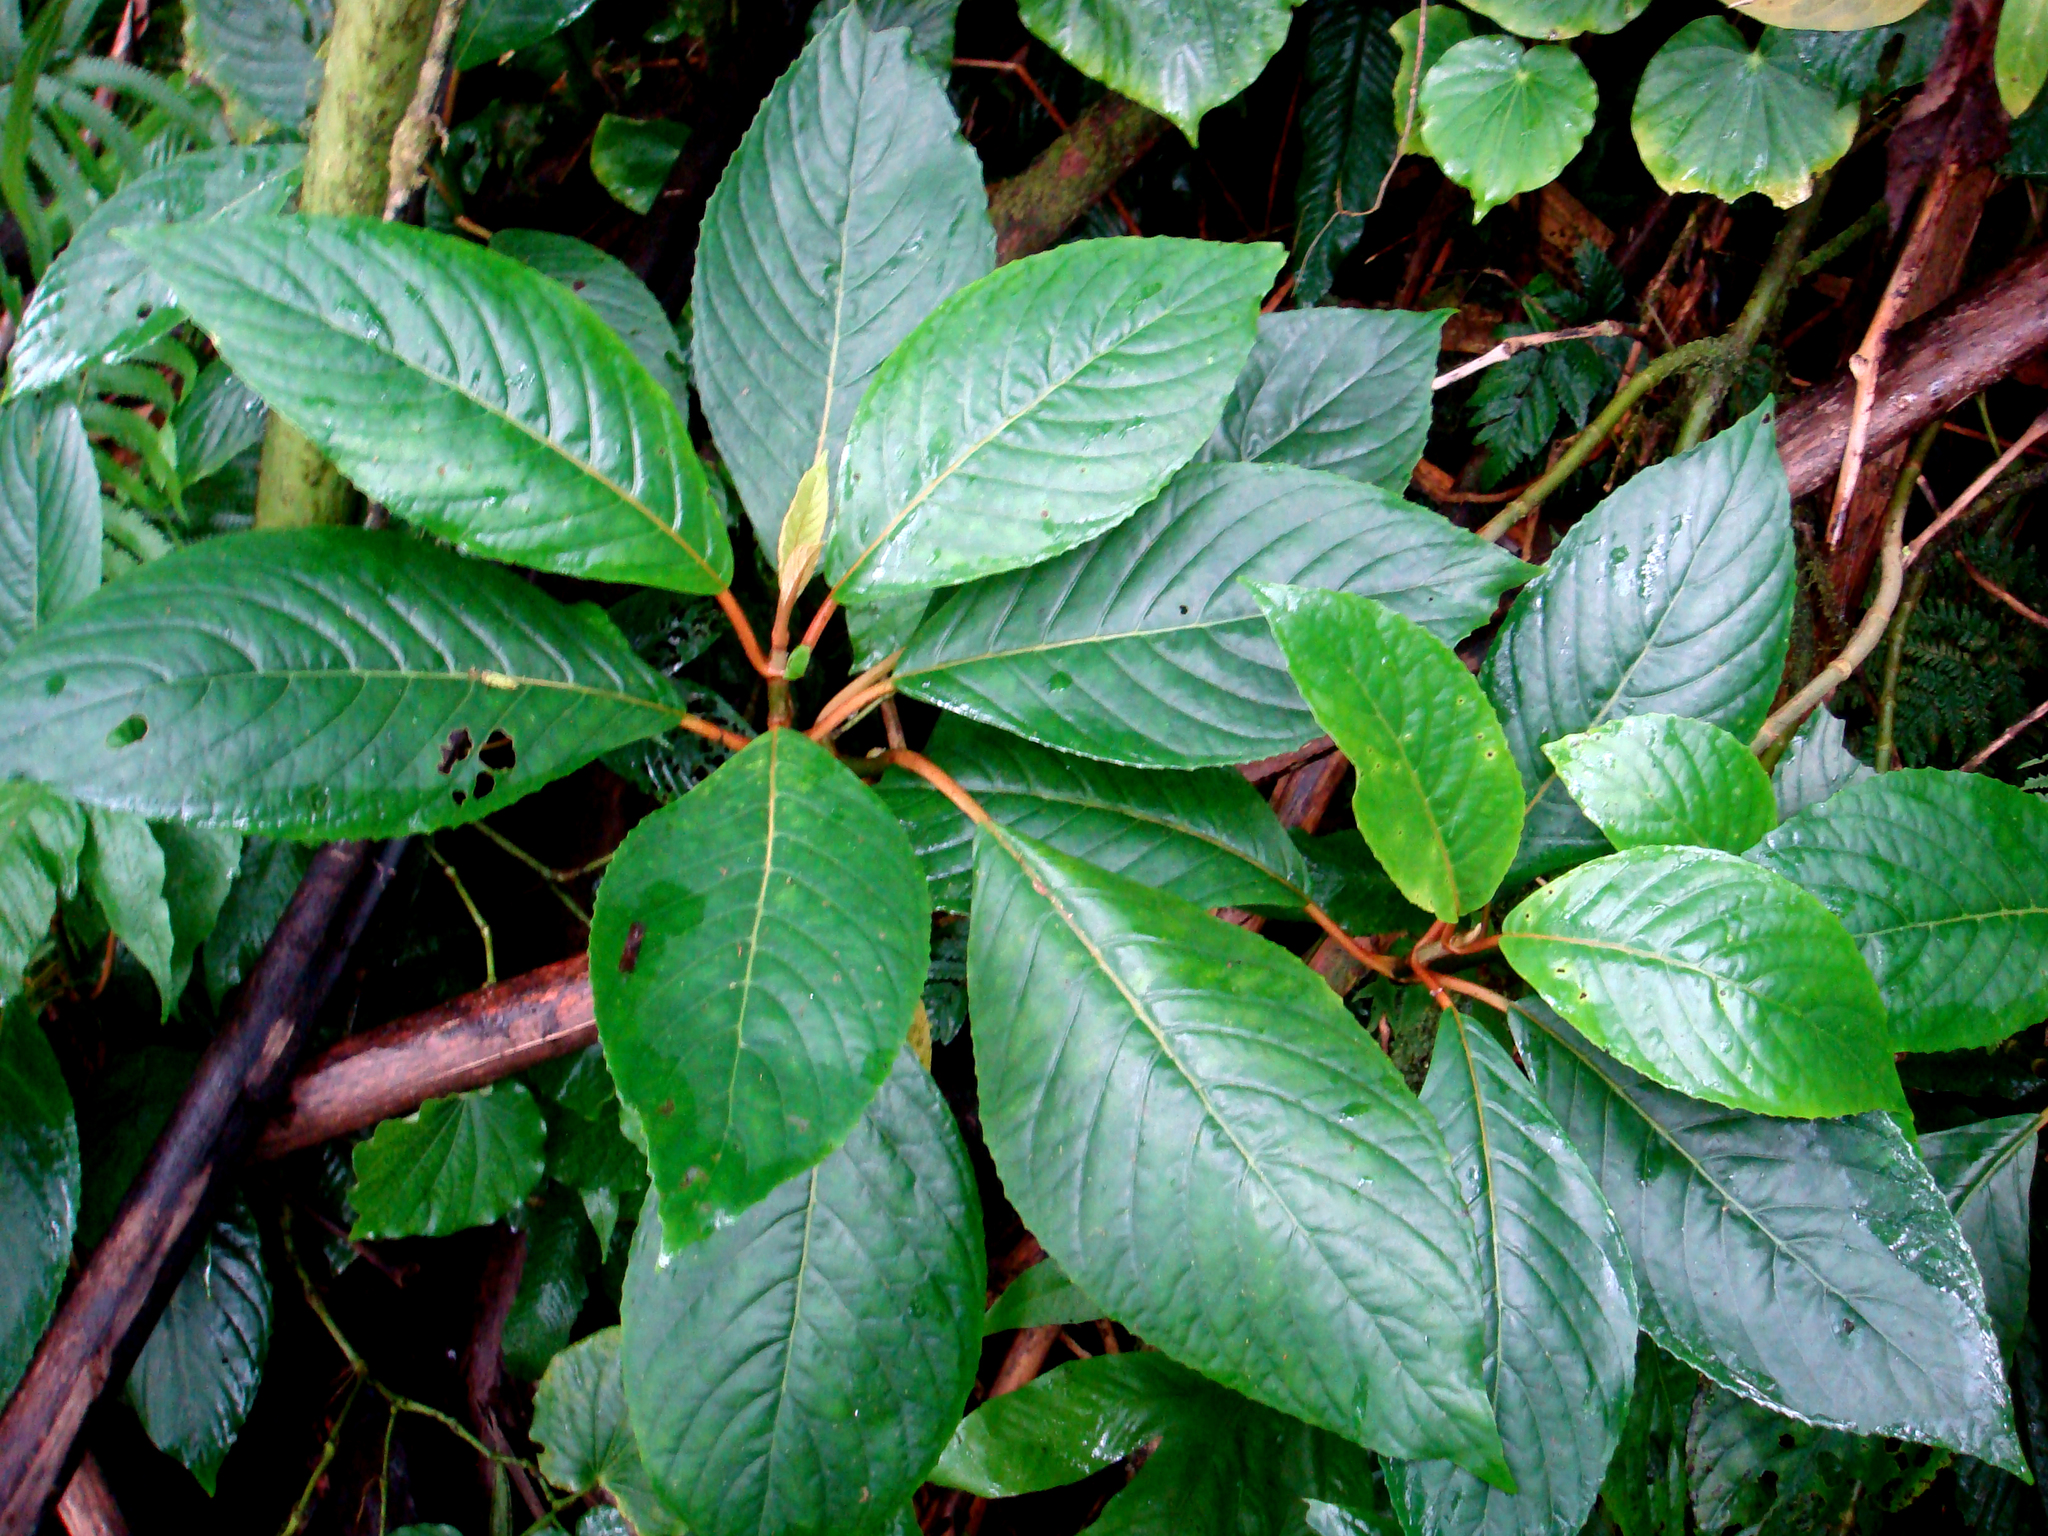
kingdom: Plantae
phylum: Tracheophyta
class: Magnoliopsida
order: Lamiales
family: Gesneriaceae
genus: Cyrtandra
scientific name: Cyrtandra lillianae
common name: Te manga cyrtandra
